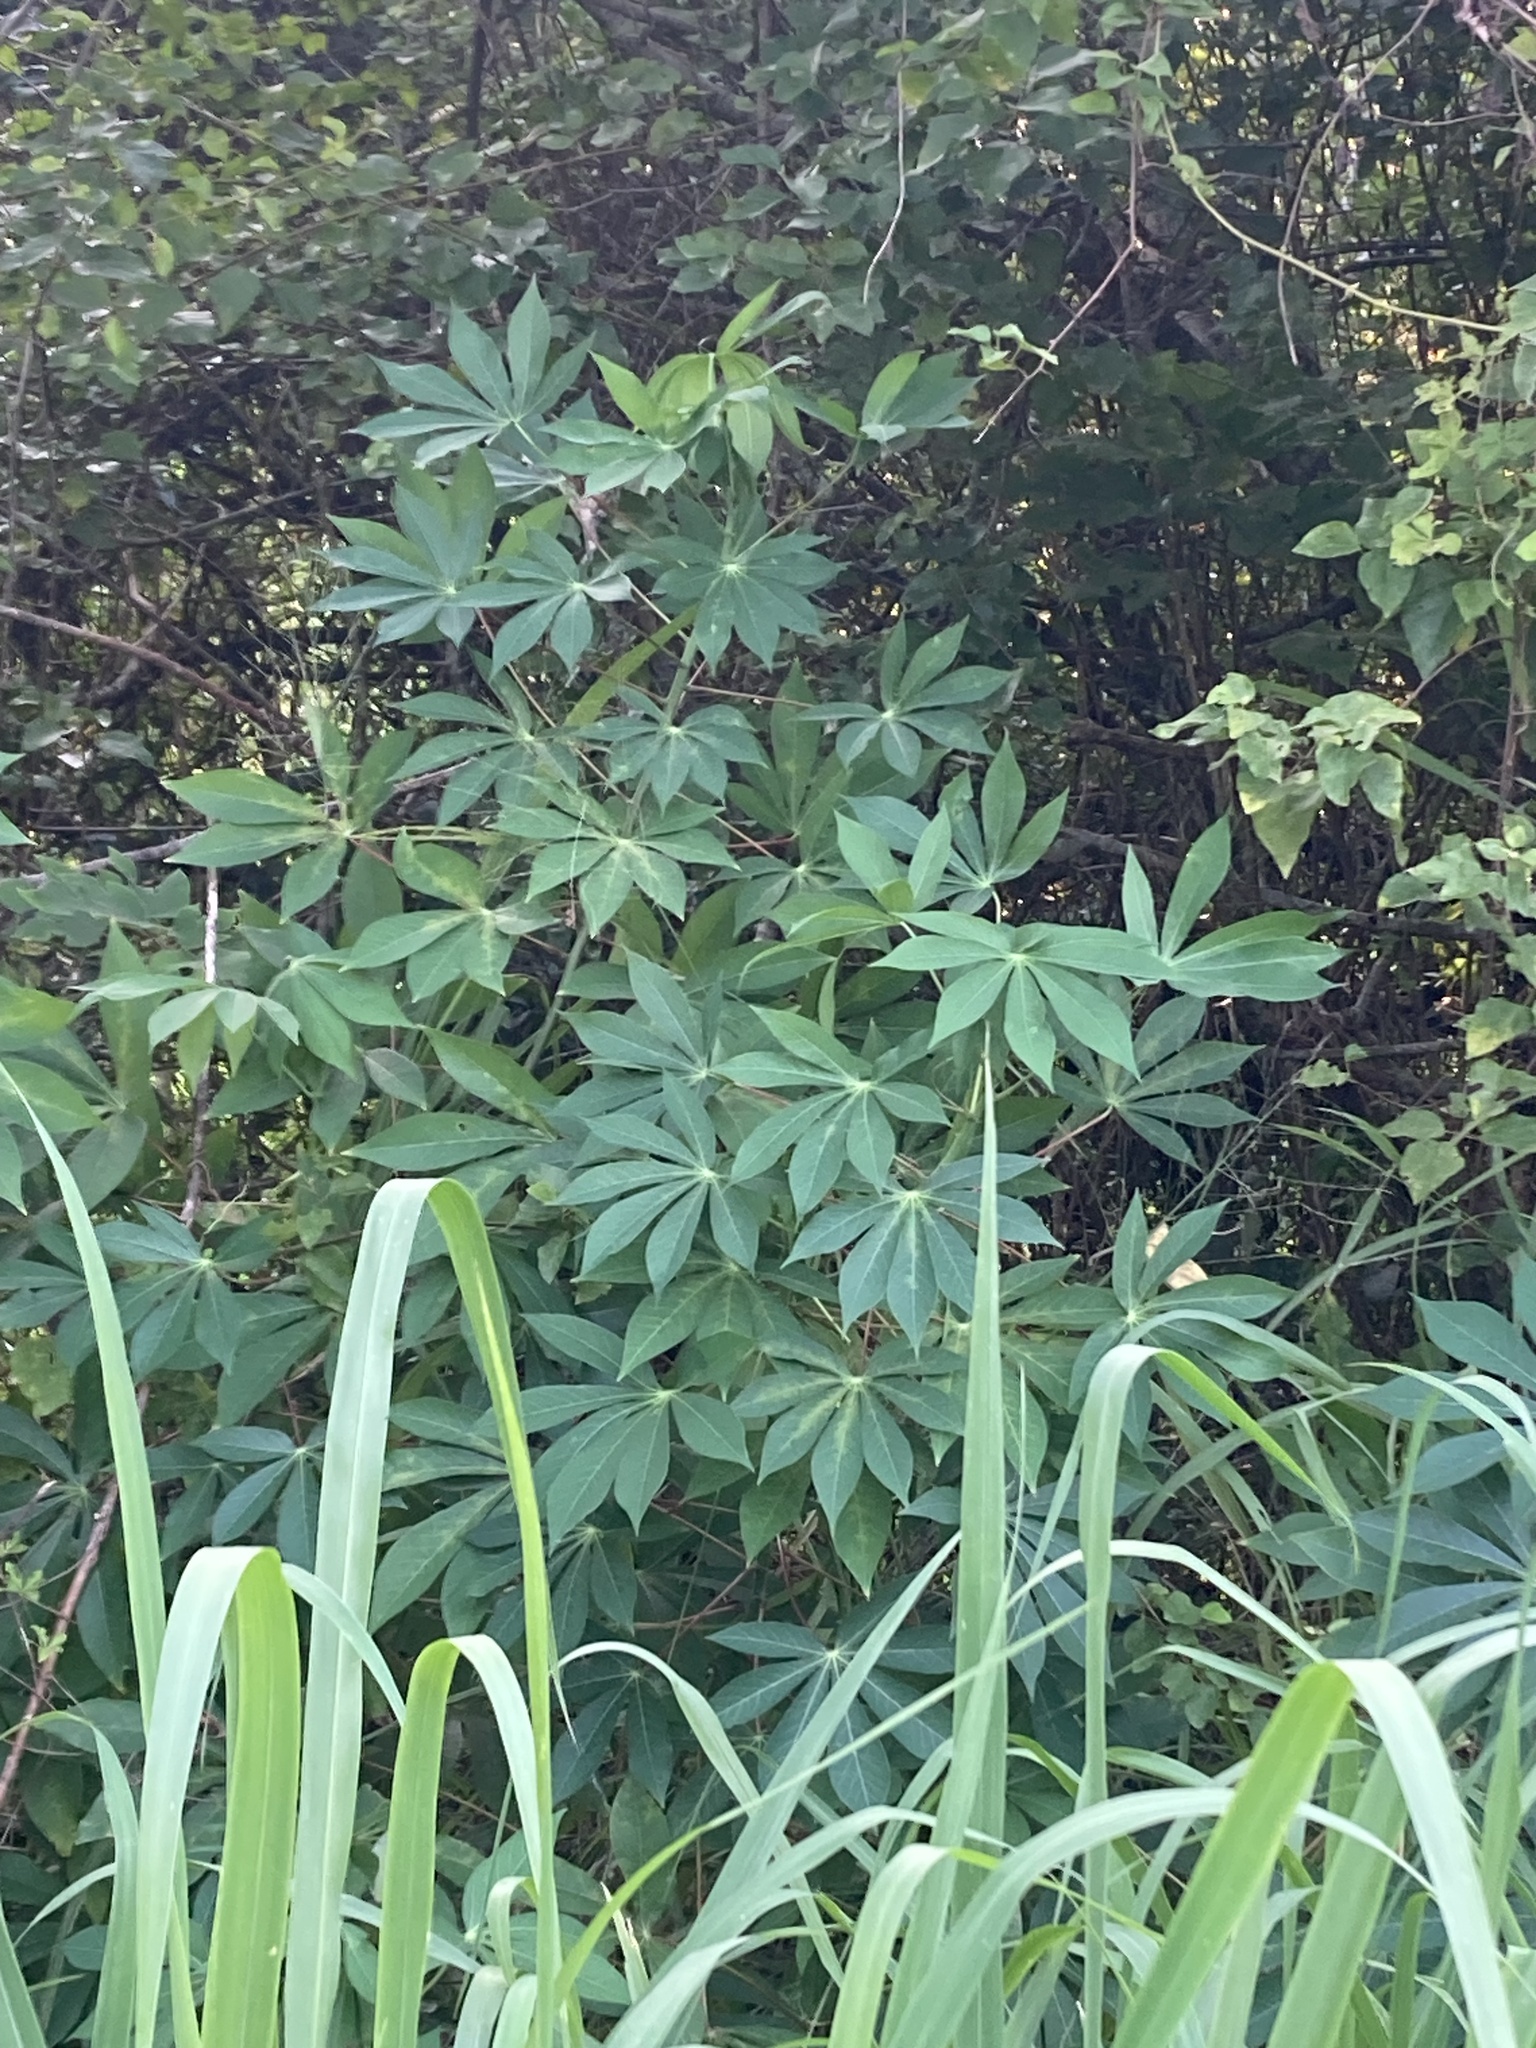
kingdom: Plantae
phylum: Tracheophyta
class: Magnoliopsida
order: Malpighiales
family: Euphorbiaceae
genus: Manihot
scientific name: Manihot esculenta
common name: Cassava
